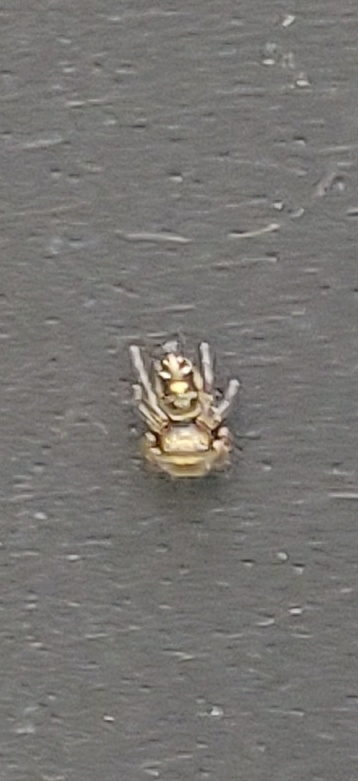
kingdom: Animalia
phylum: Arthropoda
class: Arachnida
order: Araneae
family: Salticidae
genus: Phidippus
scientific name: Phidippus audax
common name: Bold jumper
